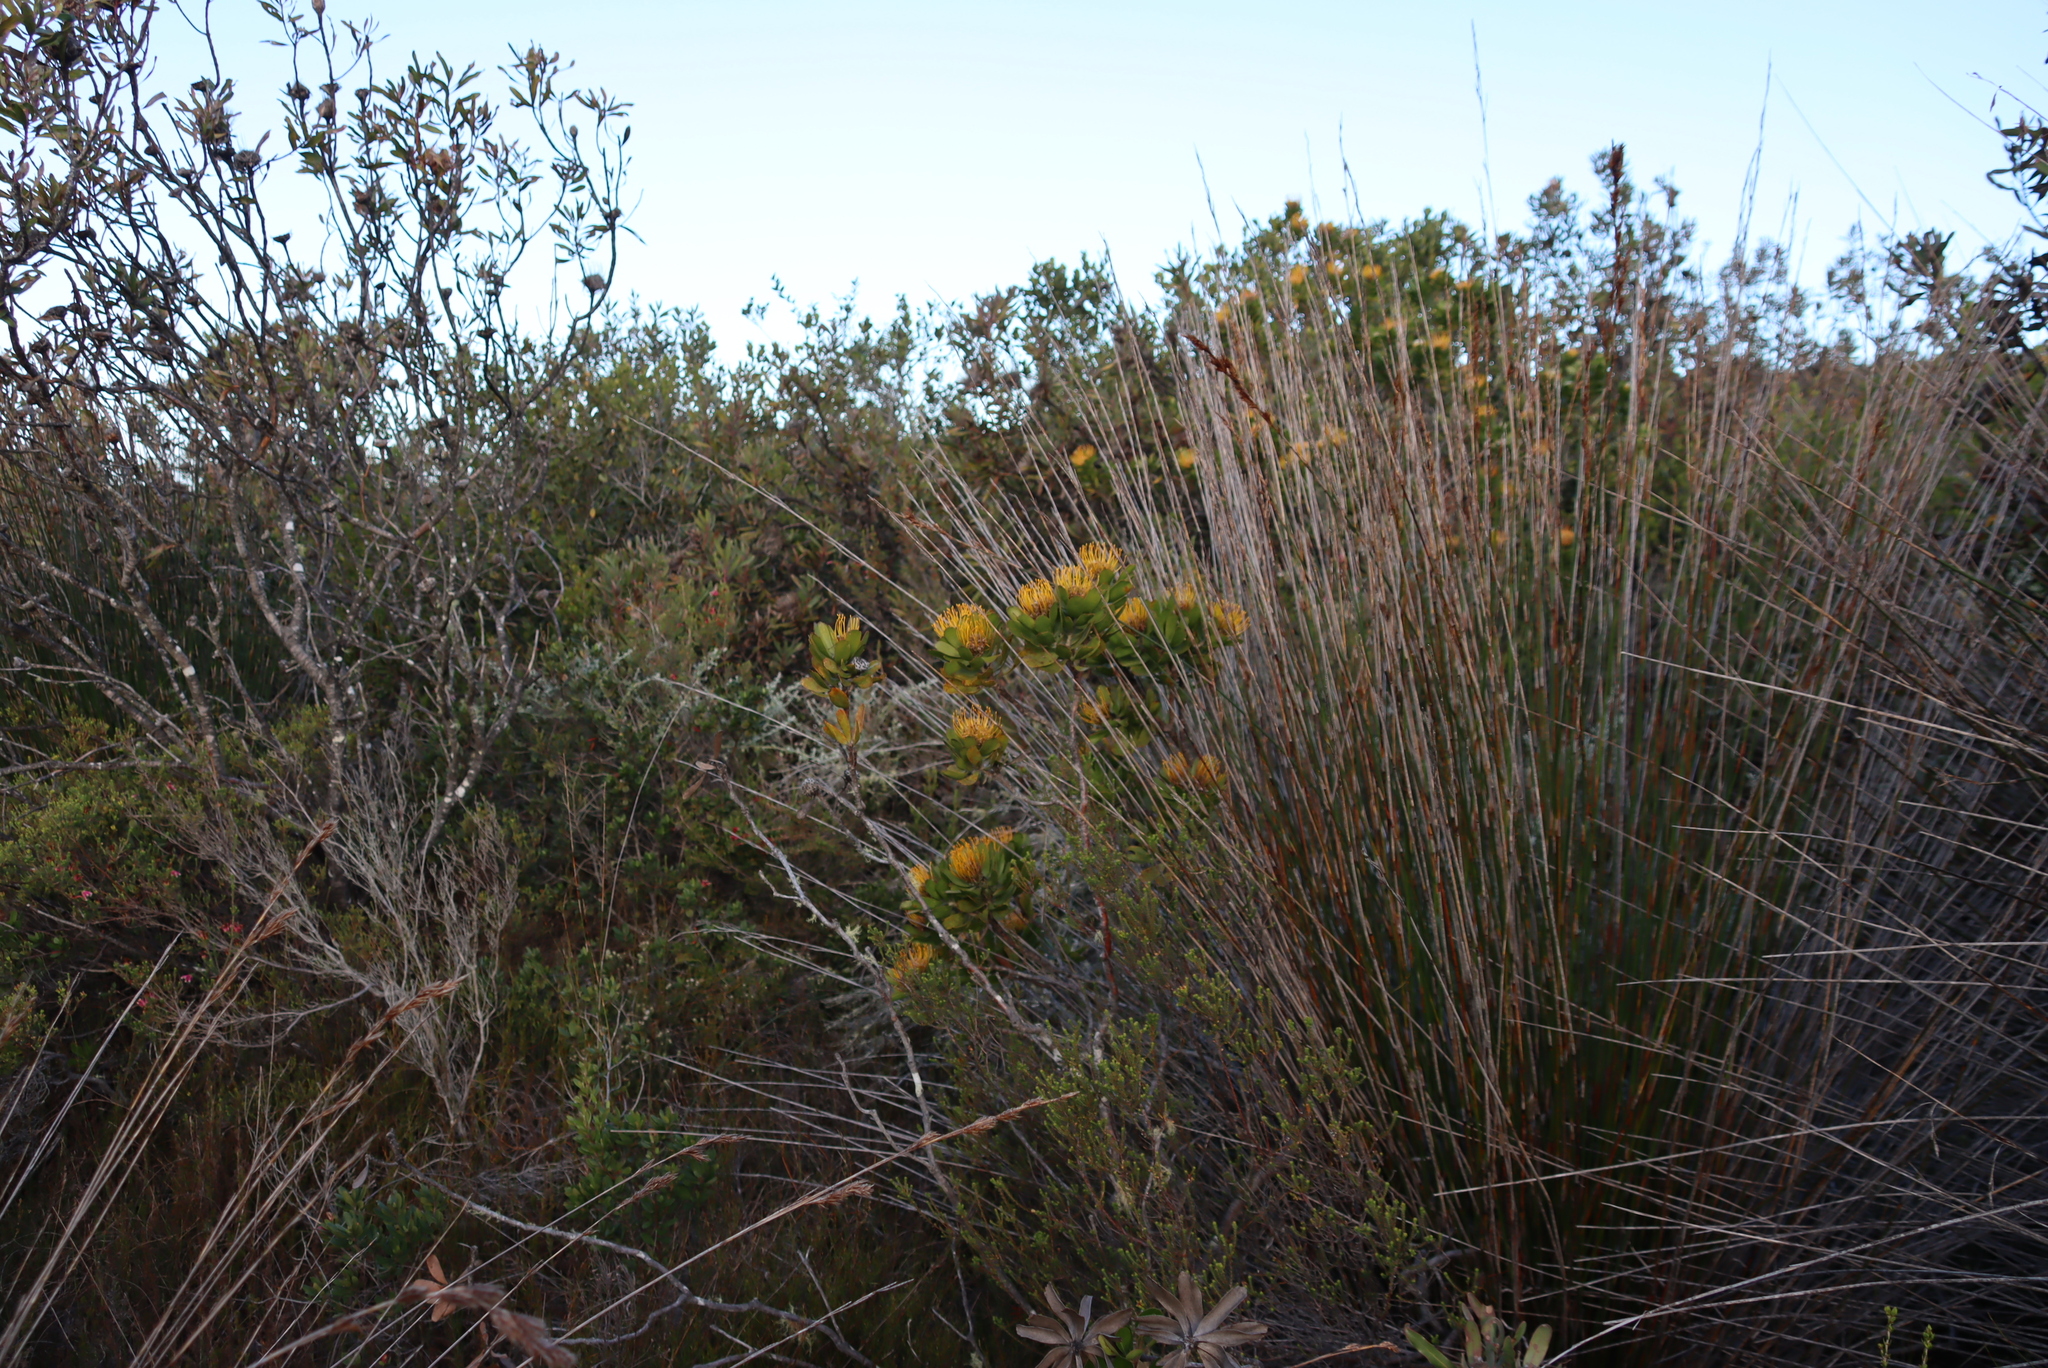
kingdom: Plantae
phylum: Tracheophyta
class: Magnoliopsida
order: Proteales
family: Proteaceae
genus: Leucospermum
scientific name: Leucospermum praecox
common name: Mossel bay pincushion
